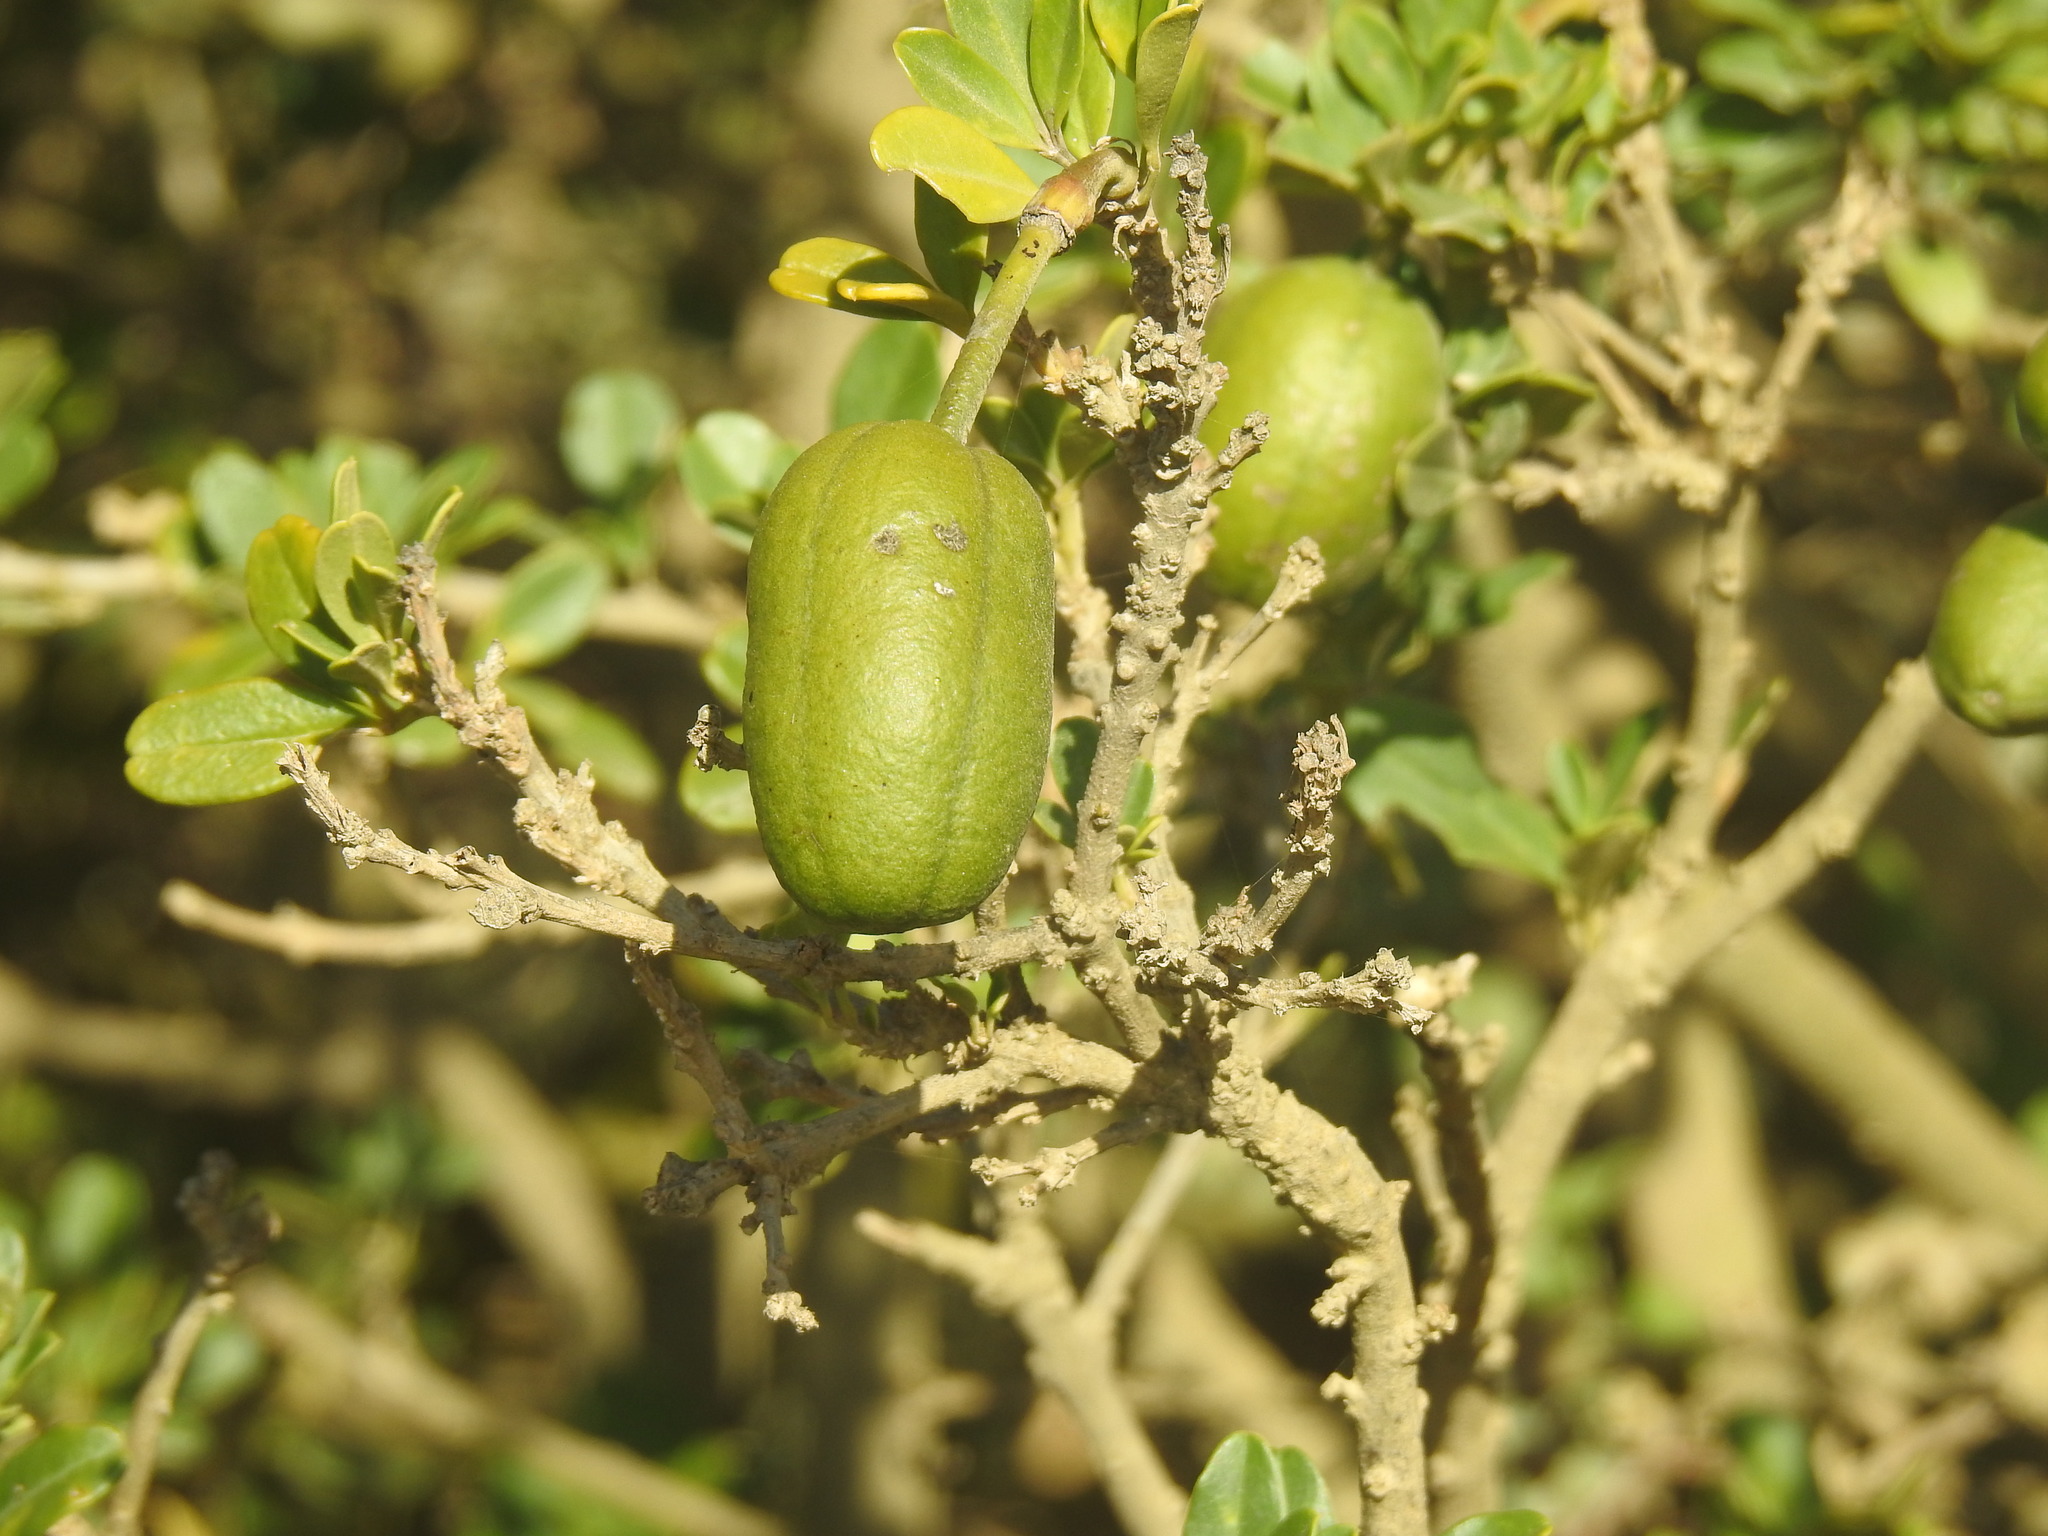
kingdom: Plantae
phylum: Tracheophyta
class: Magnoliopsida
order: Brassicales
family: Capparaceae
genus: Maerua
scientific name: Maerua cafra
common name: Bush maerua
